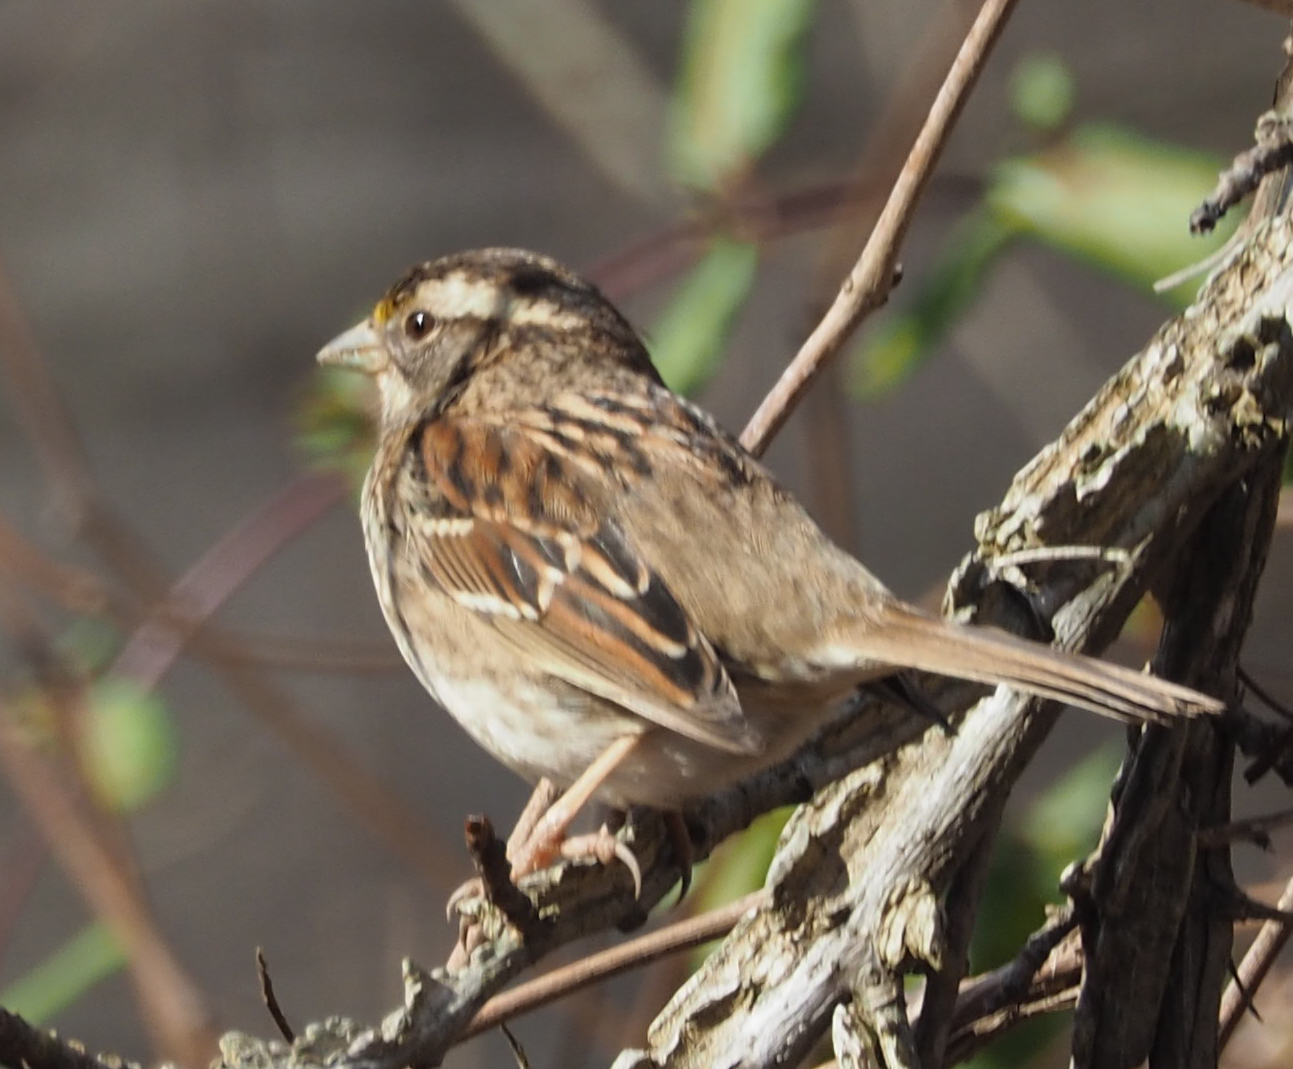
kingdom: Animalia
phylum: Chordata
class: Aves
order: Passeriformes
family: Passerellidae
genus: Zonotrichia
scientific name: Zonotrichia albicollis
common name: White-throated sparrow
